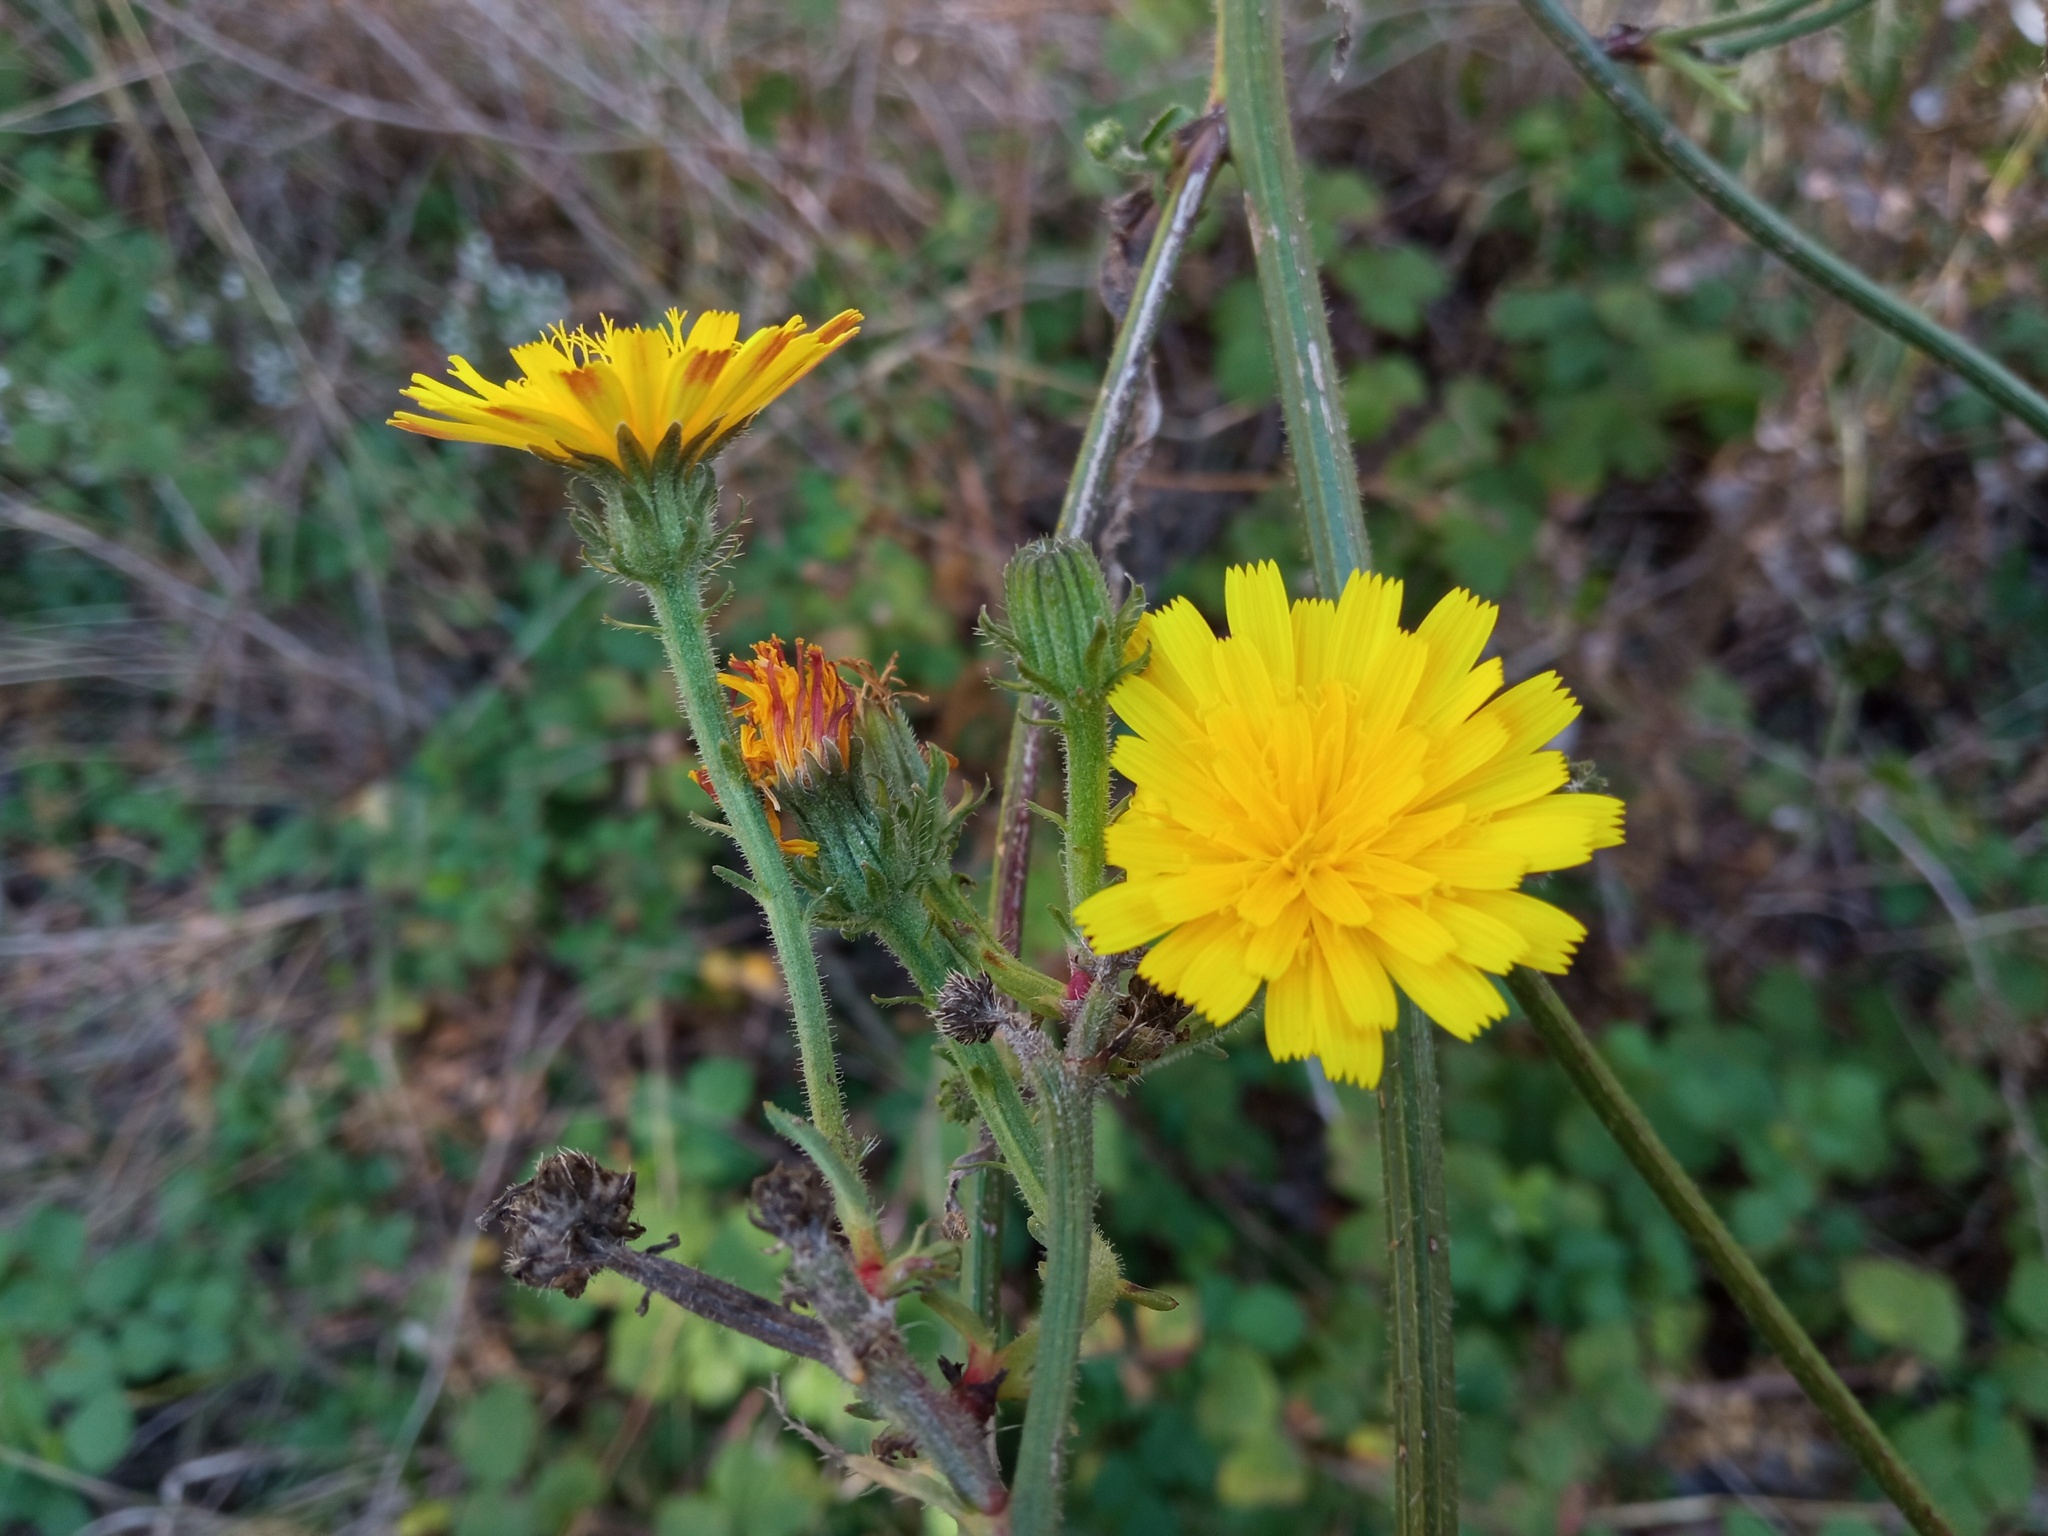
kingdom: Plantae
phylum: Tracheophyta
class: Magnoliopsida
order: Asterales
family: Asteraceae
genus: Picris
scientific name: Picris hieracioides
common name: Hawkweed oxtongue
